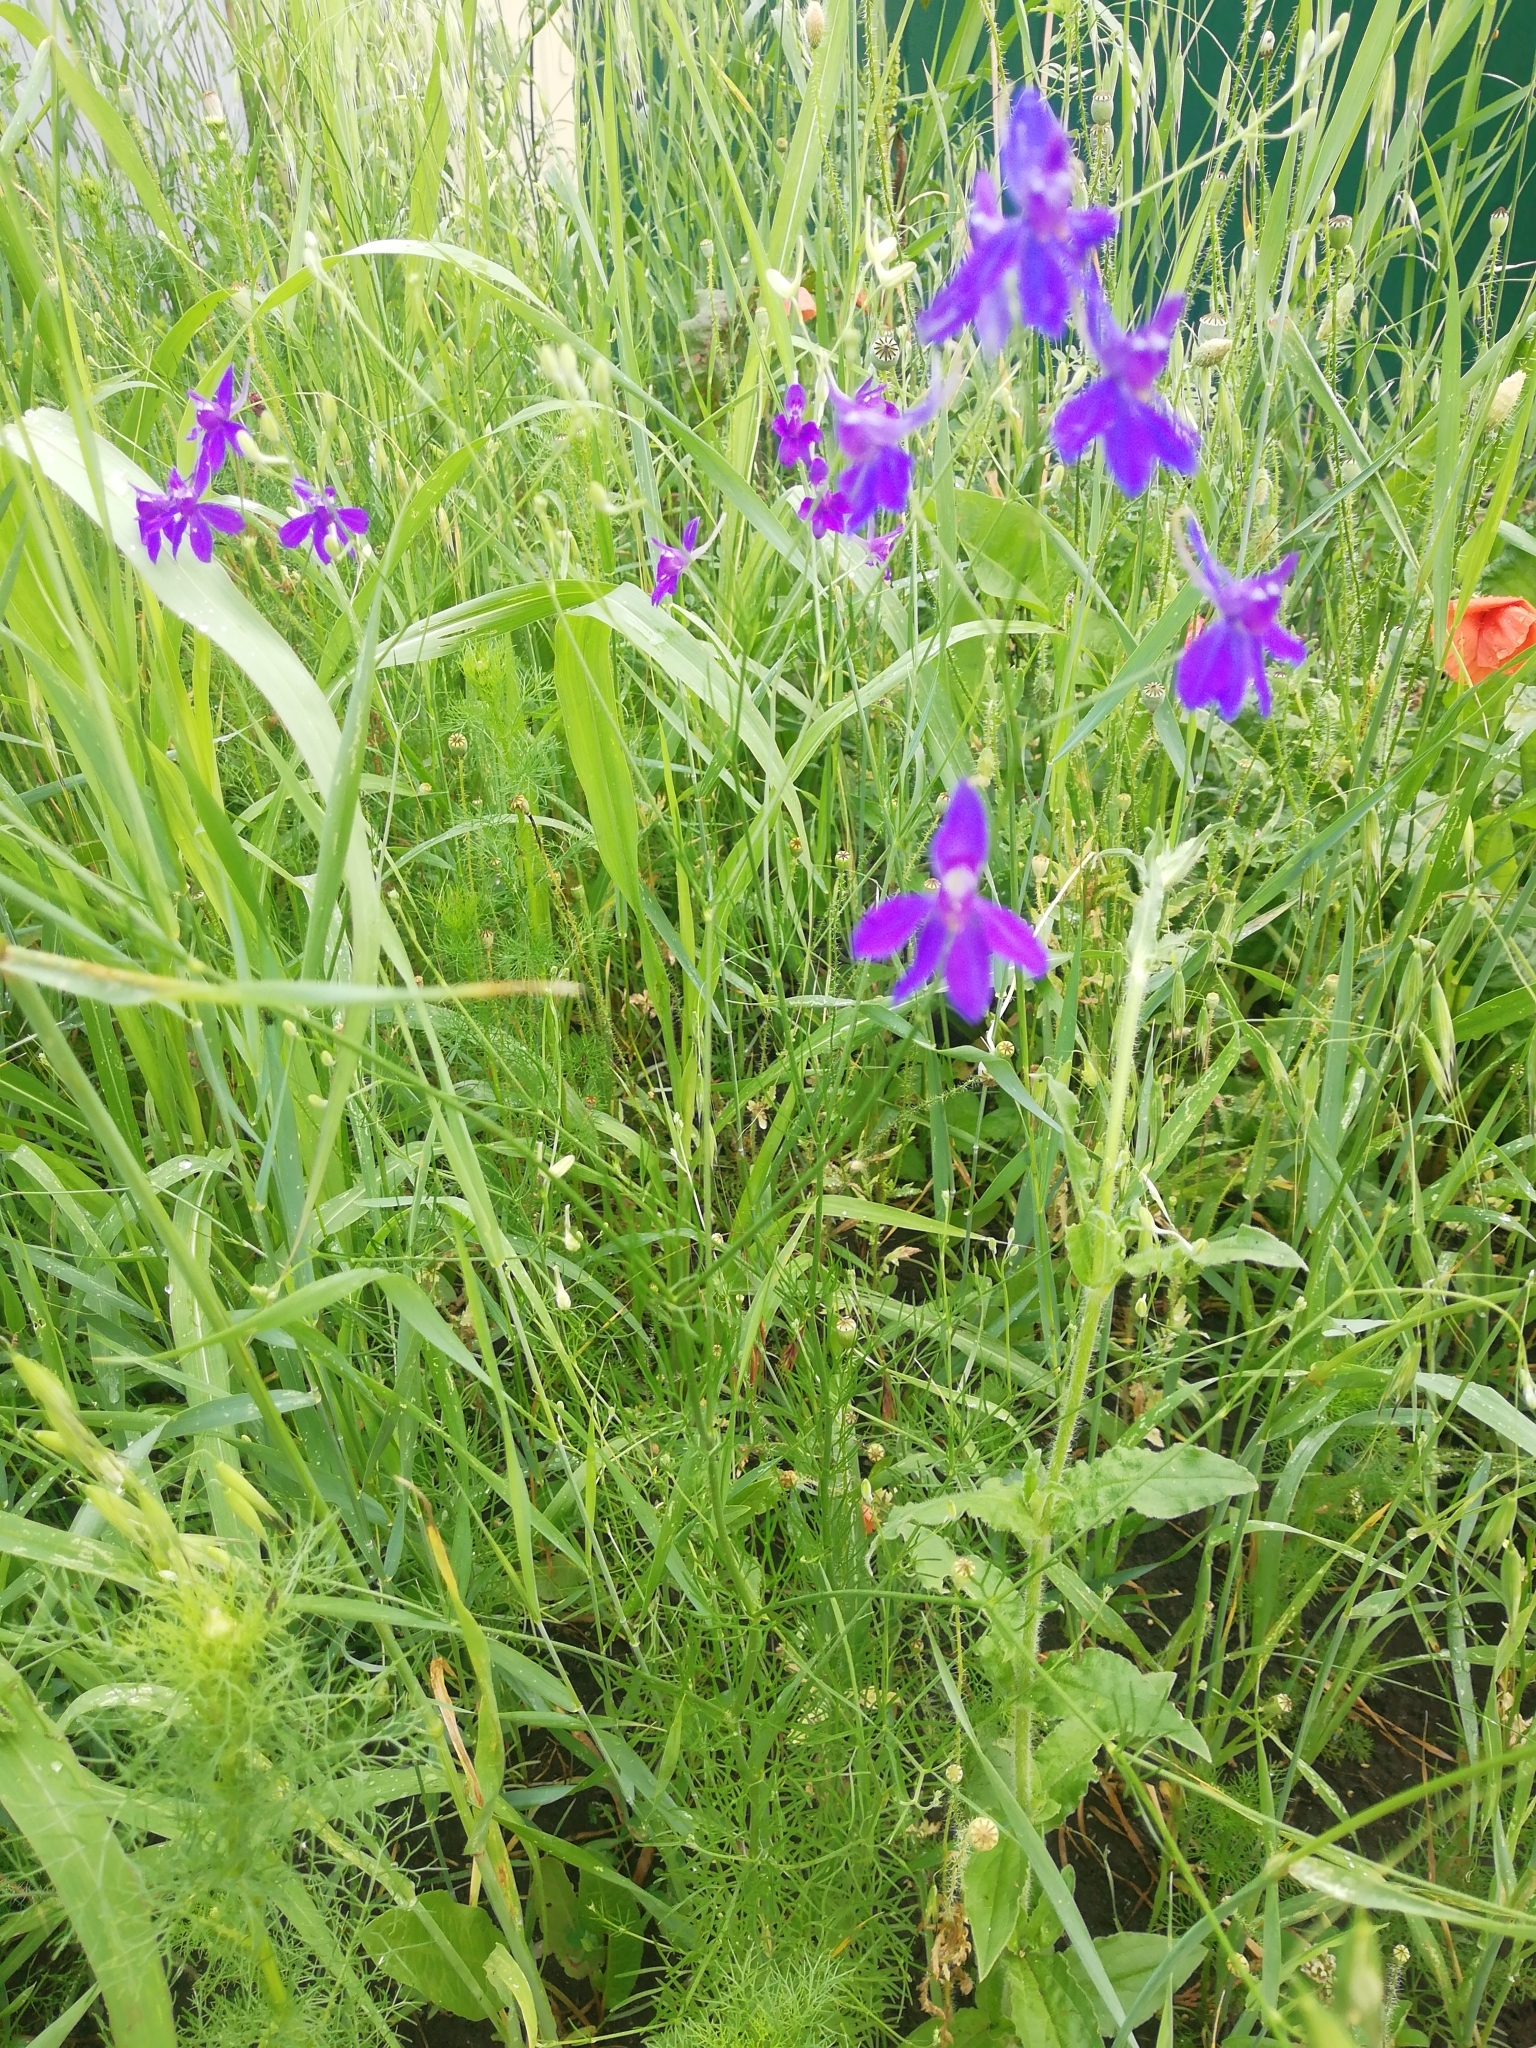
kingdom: Plantae
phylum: Tracheophyta
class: Magnoliopsida
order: Ranunculales
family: Ranunculaceae
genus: Delphinium
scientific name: Delphinium consolida
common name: Branching larkspur
